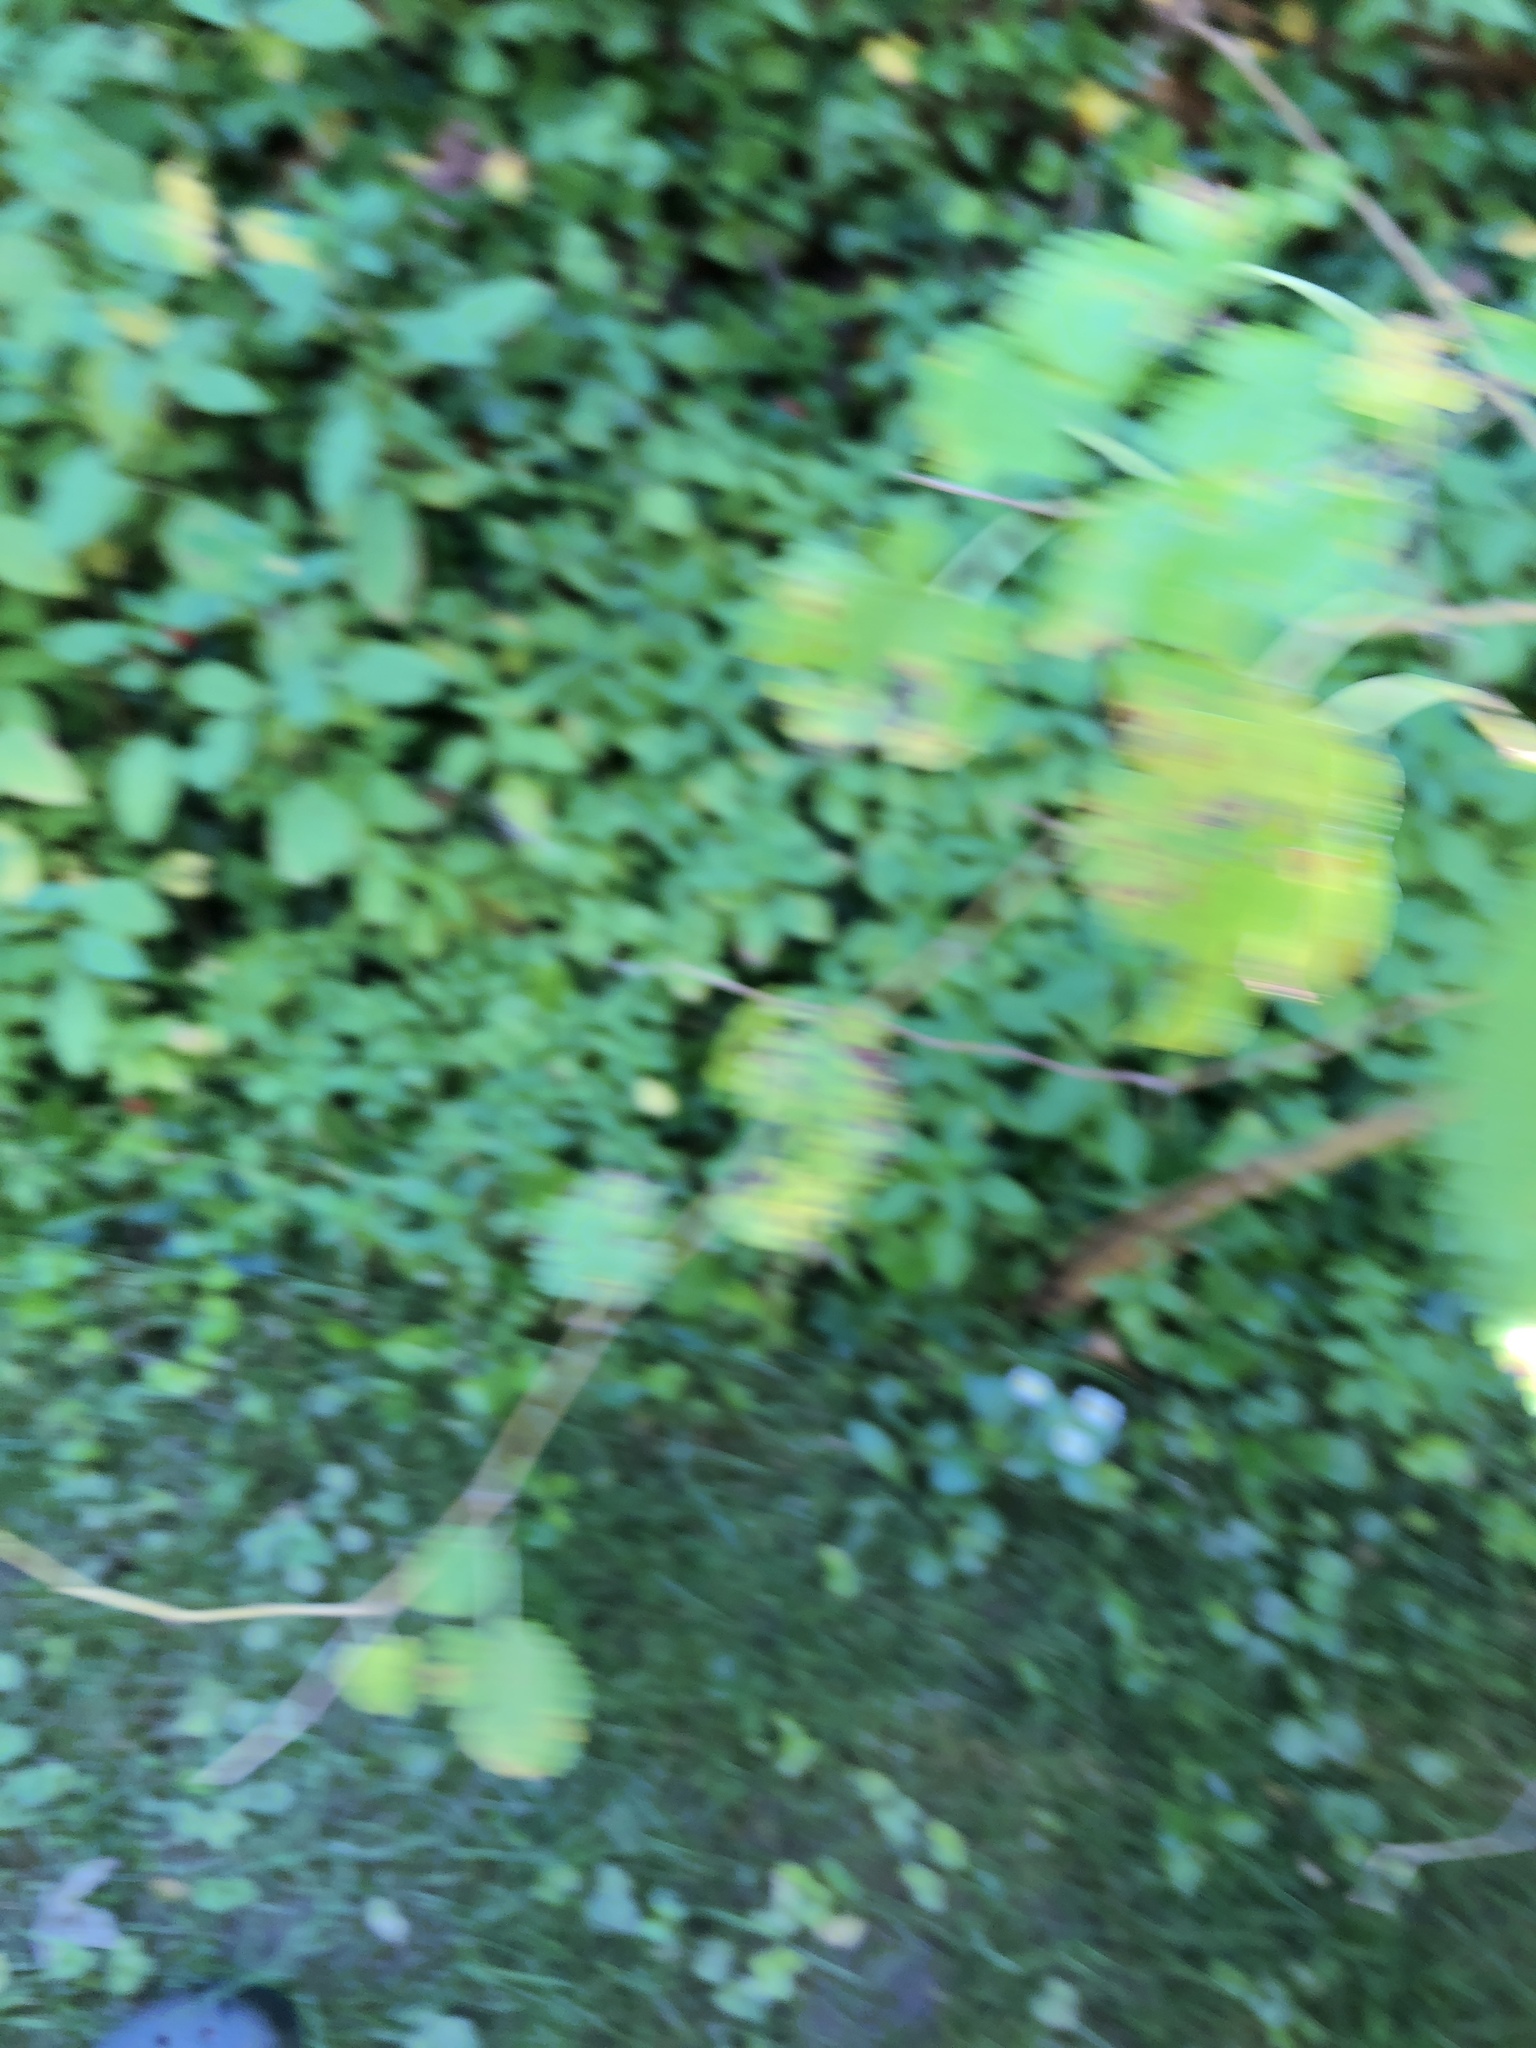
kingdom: Plantae
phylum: Tracheophyta
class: Magnoliopsida
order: Rosales
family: Moraceae
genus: Morus
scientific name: Morus alba
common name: White mulberry
